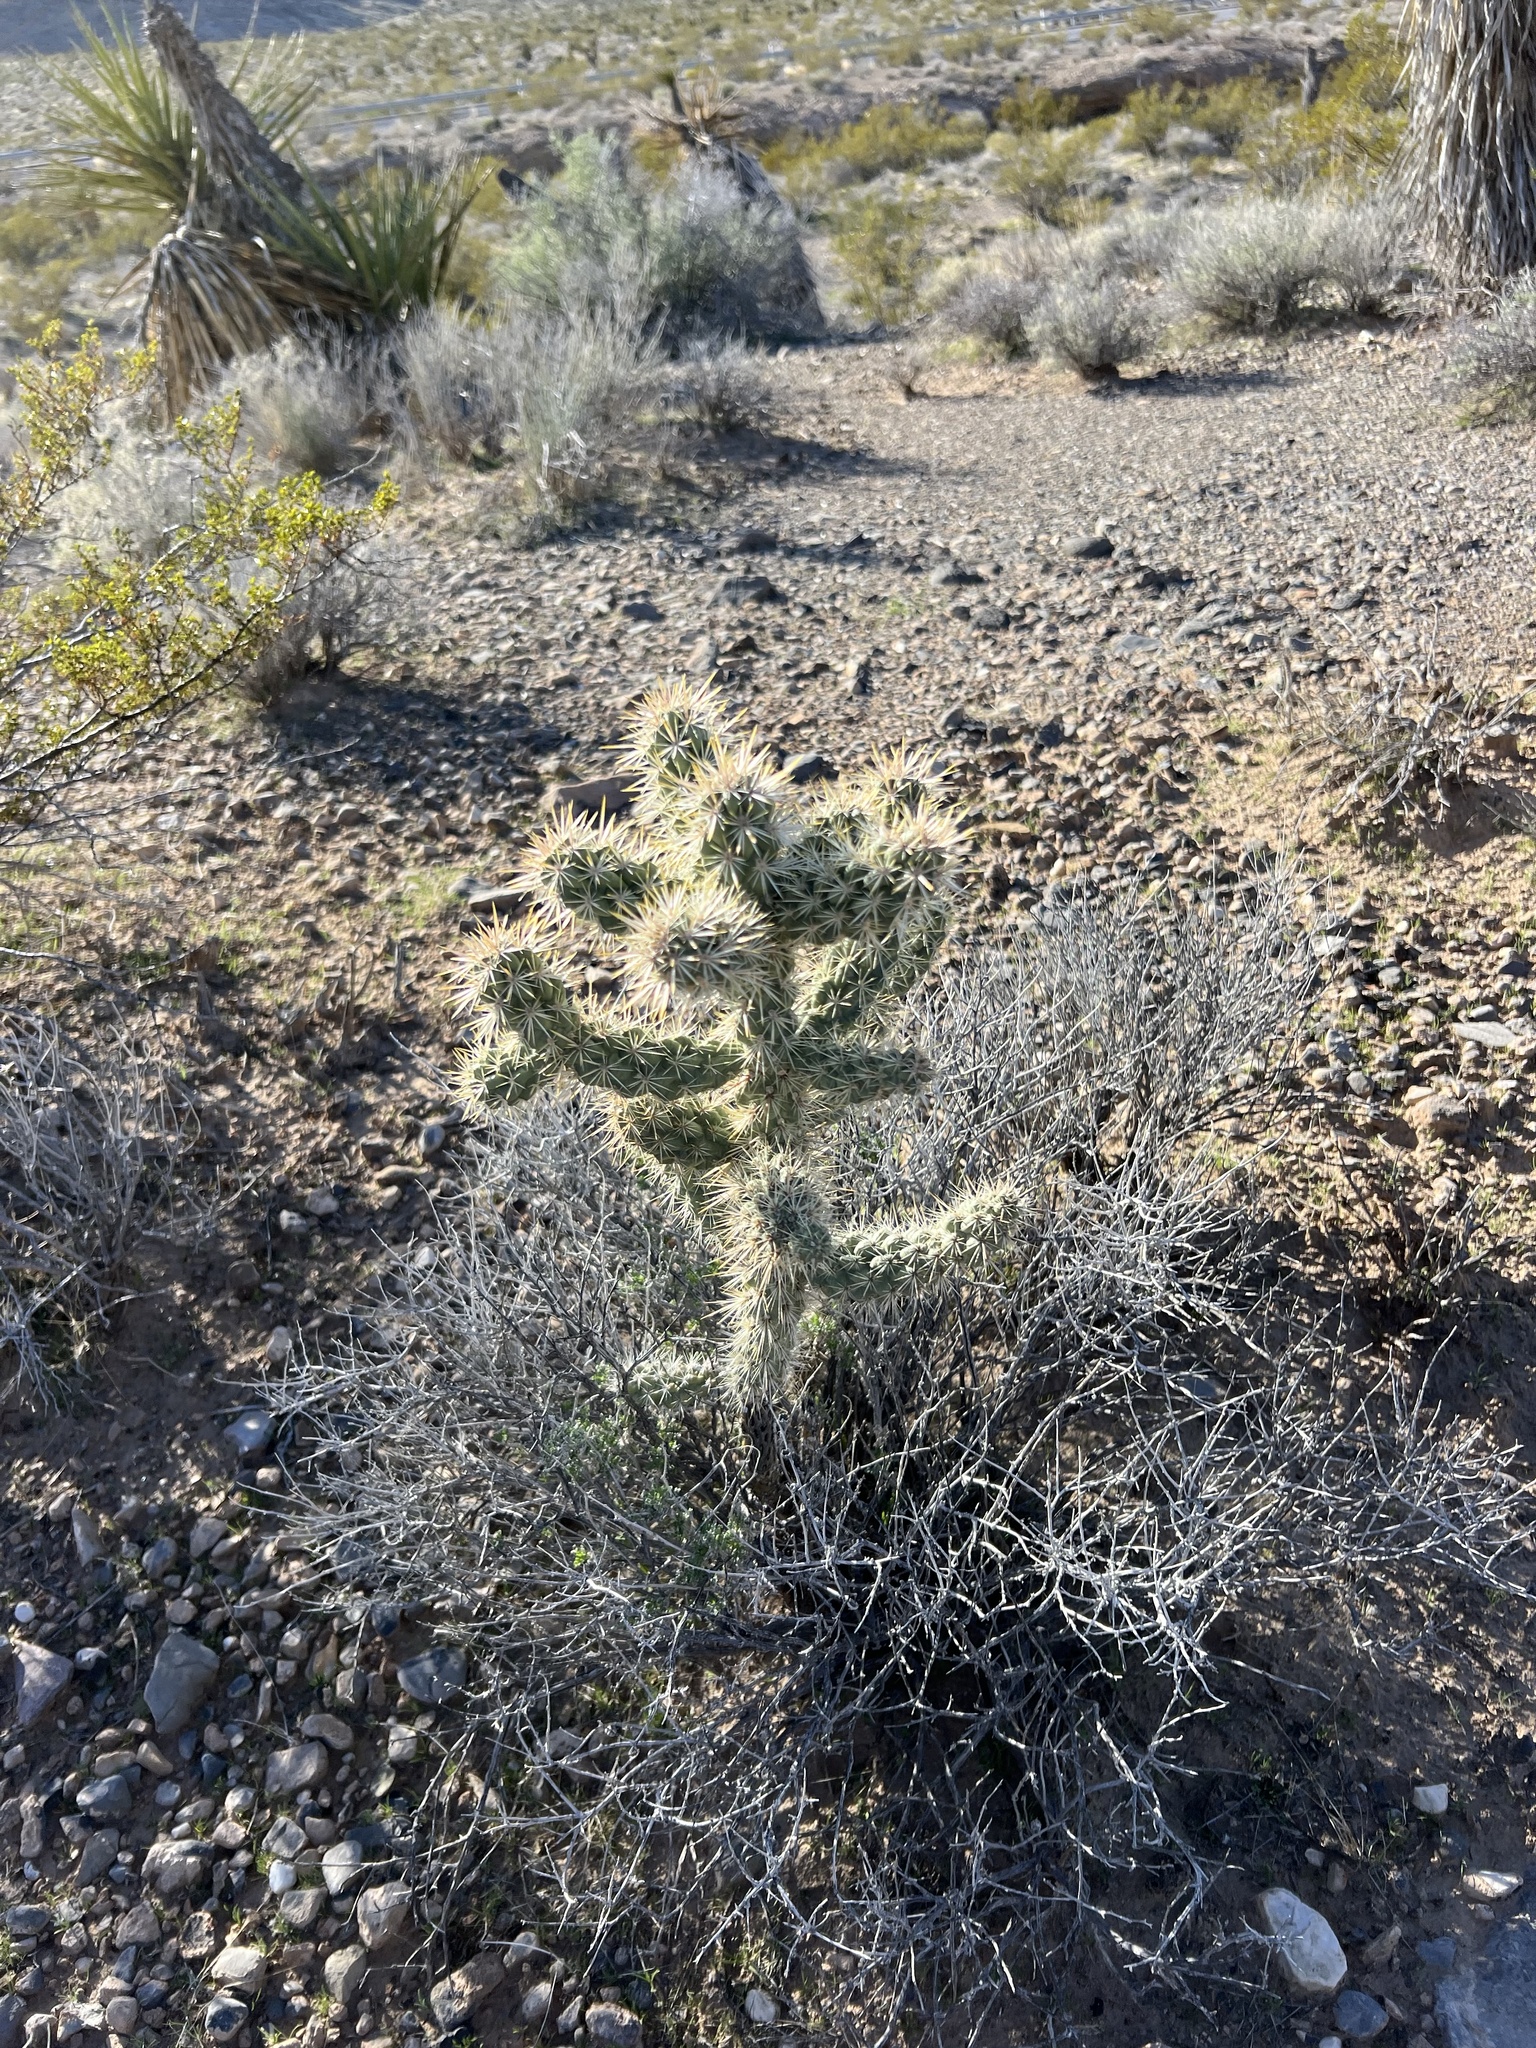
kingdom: Plantae
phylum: Tracheophyta
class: Magnoliopsida
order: Caryophyllales
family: Cactaceae
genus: Cylindropuntia
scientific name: Cylindropuntia echinocarpa
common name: Ground cholla
